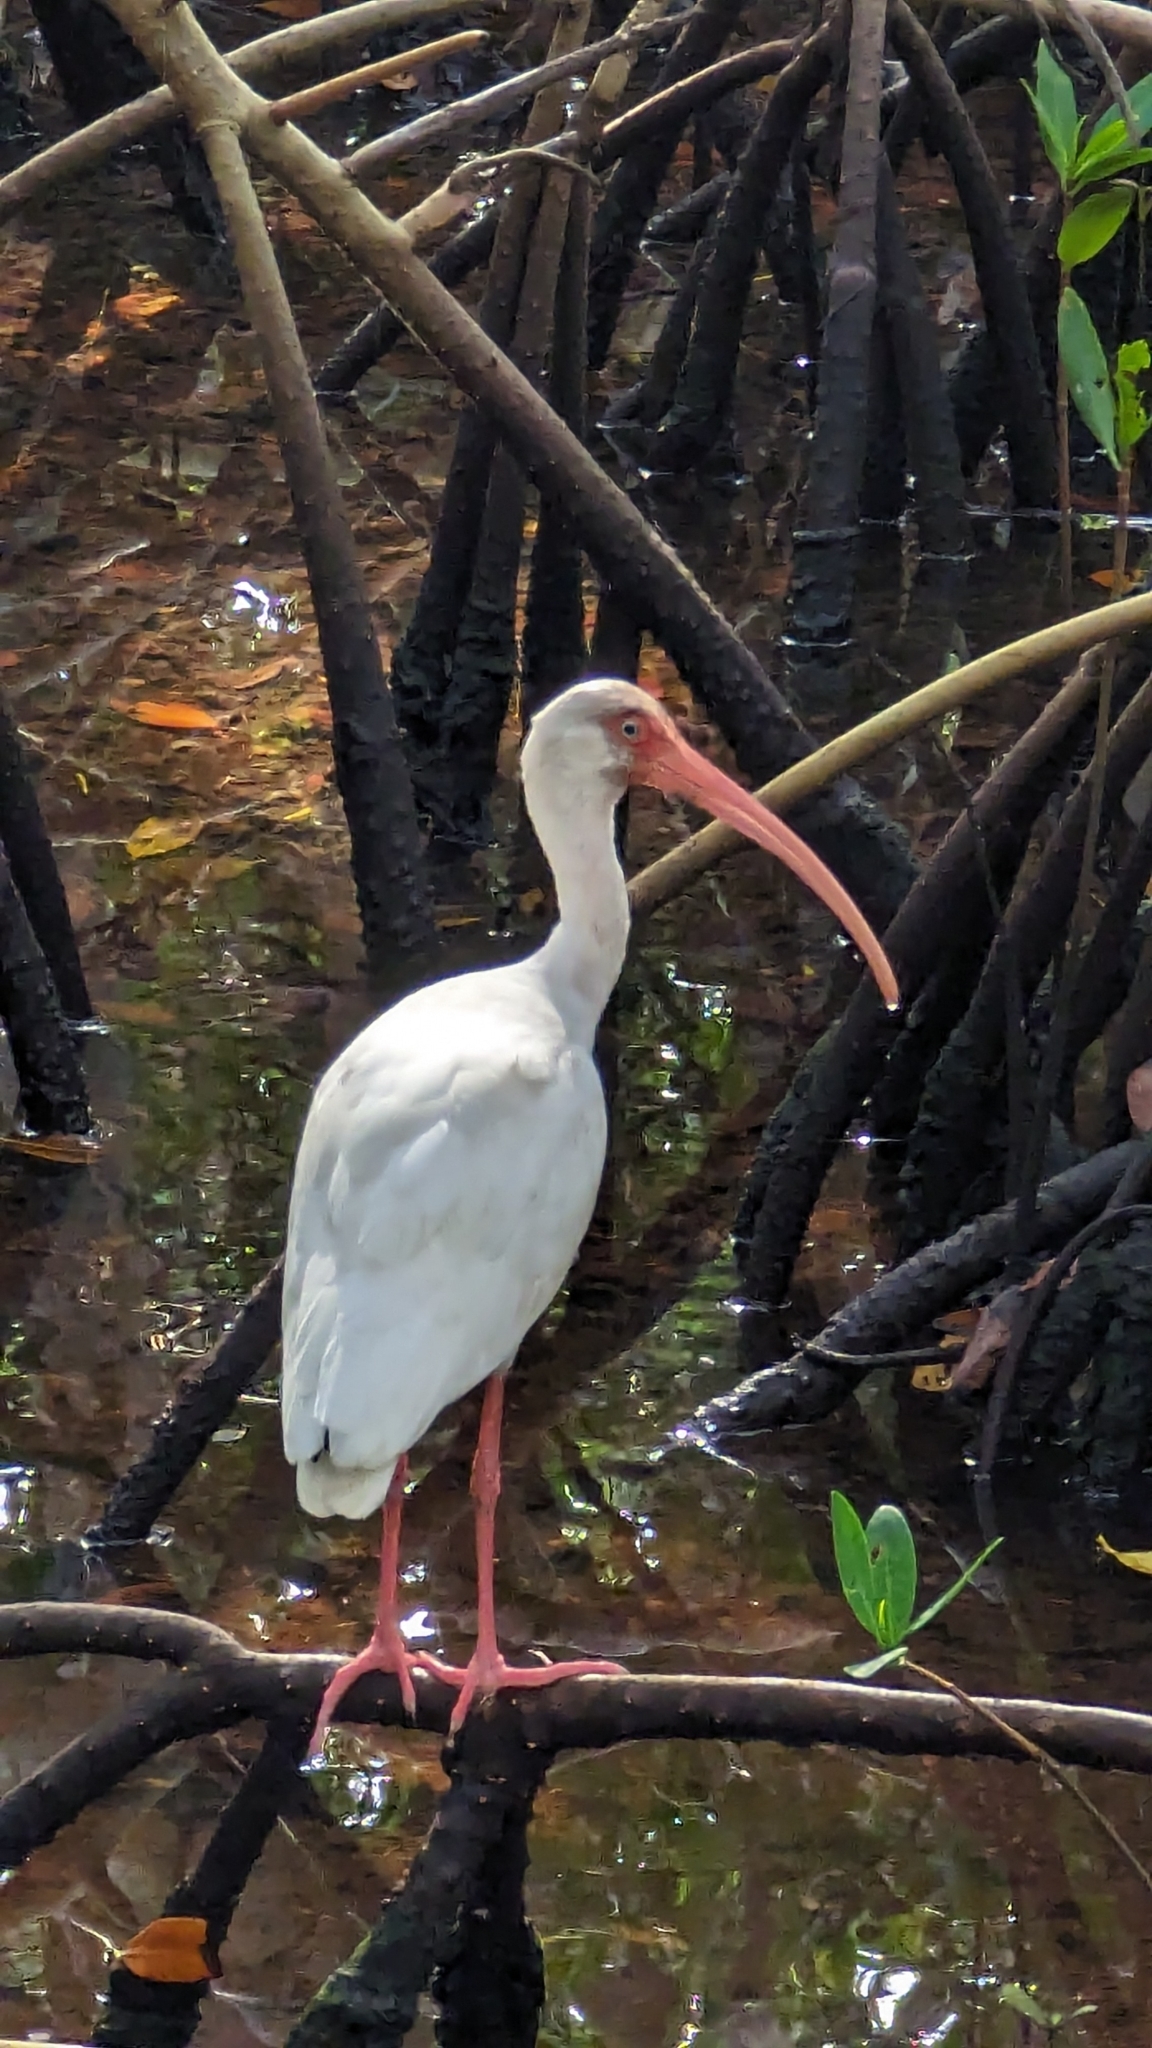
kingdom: Animalia
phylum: Chordata
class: Aves
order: Pelecaniformes
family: Threskiornithidae
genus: Eudocimus
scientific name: Eudocimus albus
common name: White ibis
